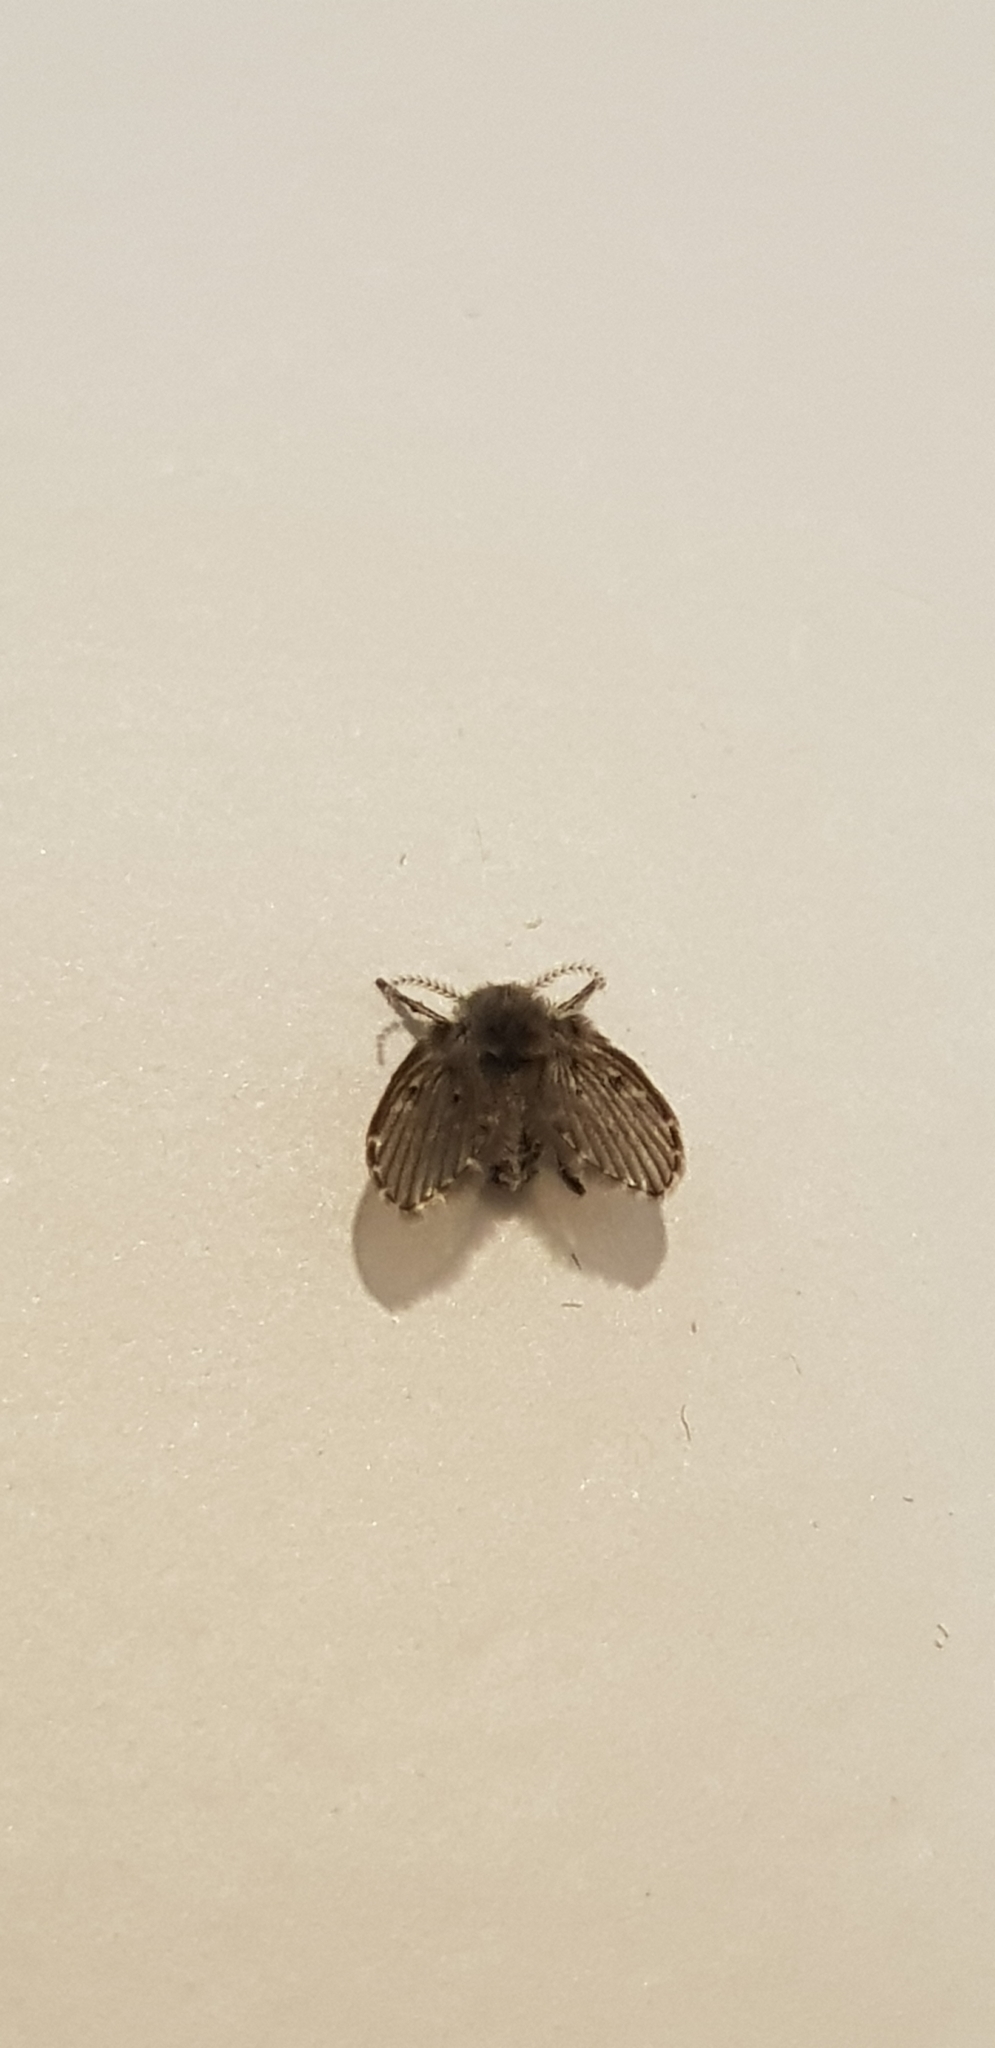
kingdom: Animalia
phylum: Arthropoda
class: Insecta
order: Diptera
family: Psychodidae
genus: Clogmia
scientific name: Clogmia albipunctatus
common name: White-spotted moth fly
